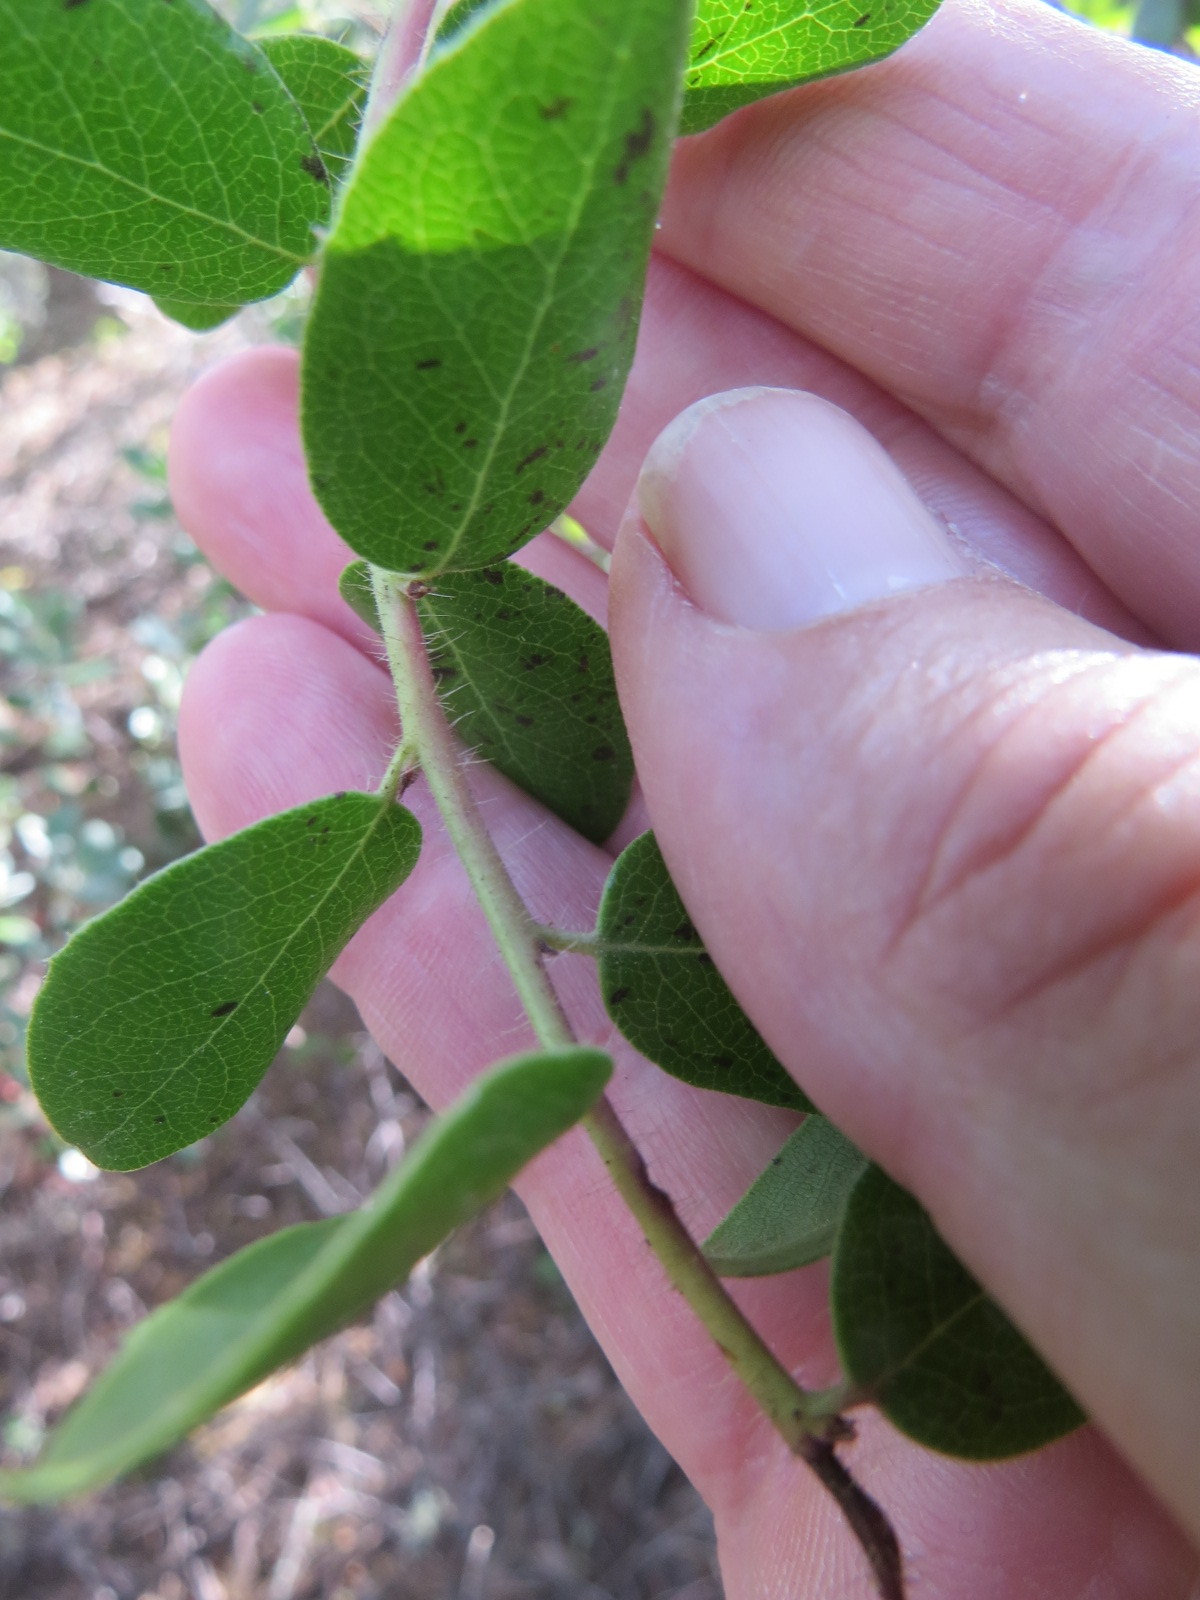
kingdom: Plantae
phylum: Tracheophyta
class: Magnoliopsida
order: Ericales
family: Ericaceae
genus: Arctostaphylos
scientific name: Arctostaphylos nummularia
